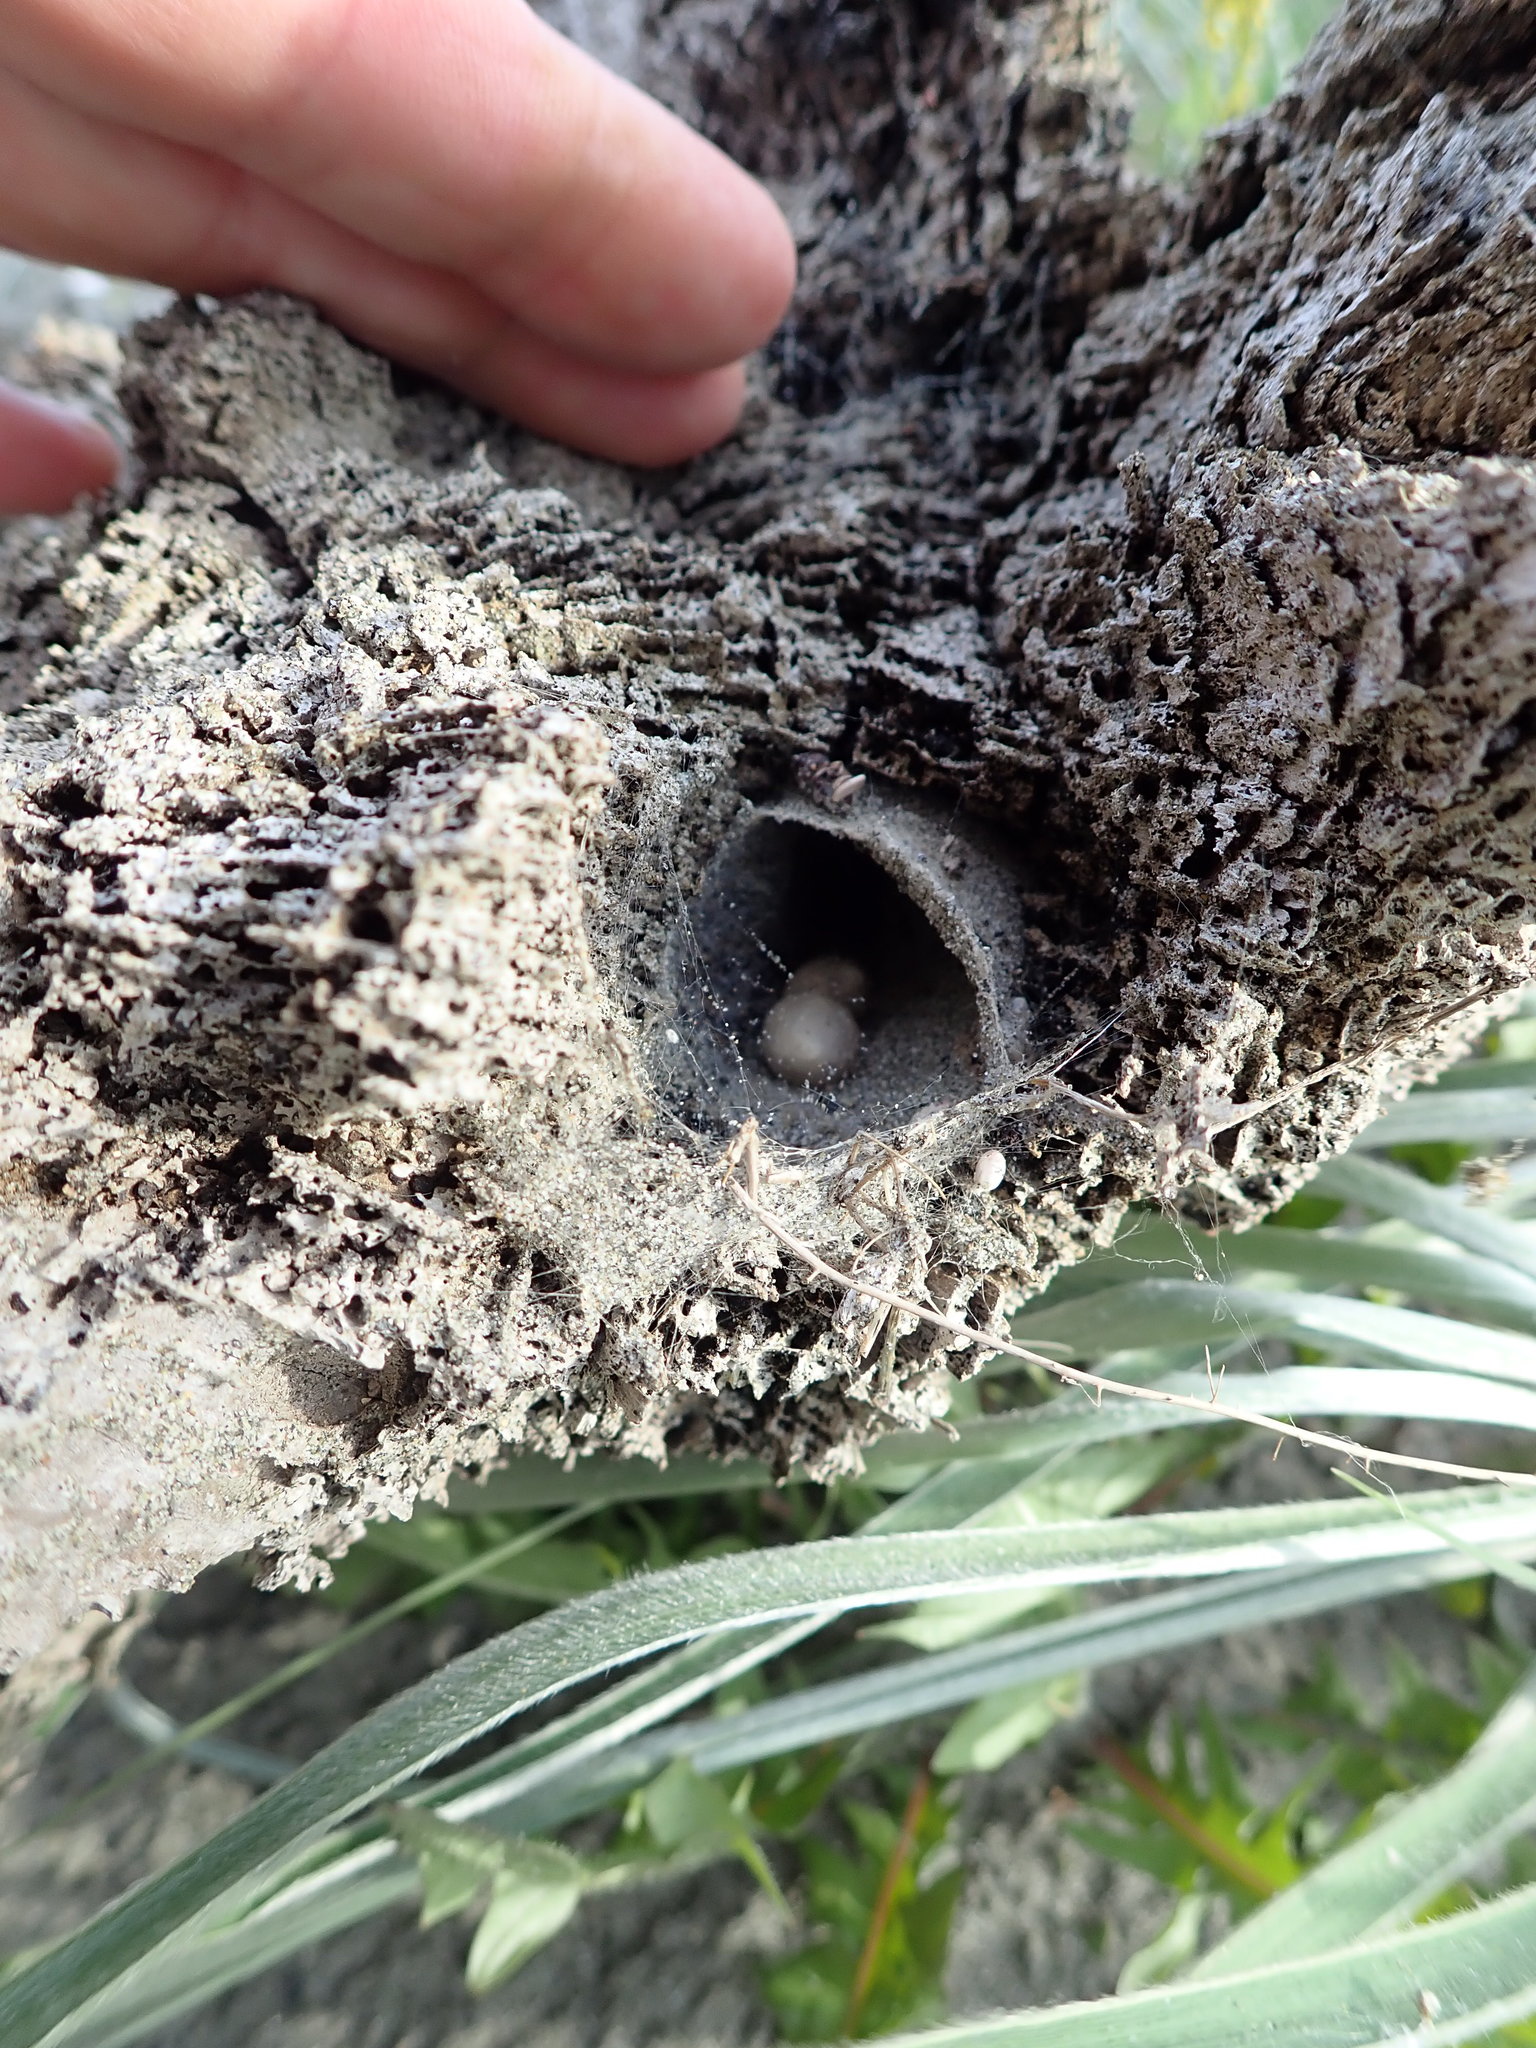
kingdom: Animalia
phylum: Arthropoda
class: Arachnida
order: Araneae
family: Theridiidae
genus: Latrodectus
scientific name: Latrodectus katipo
